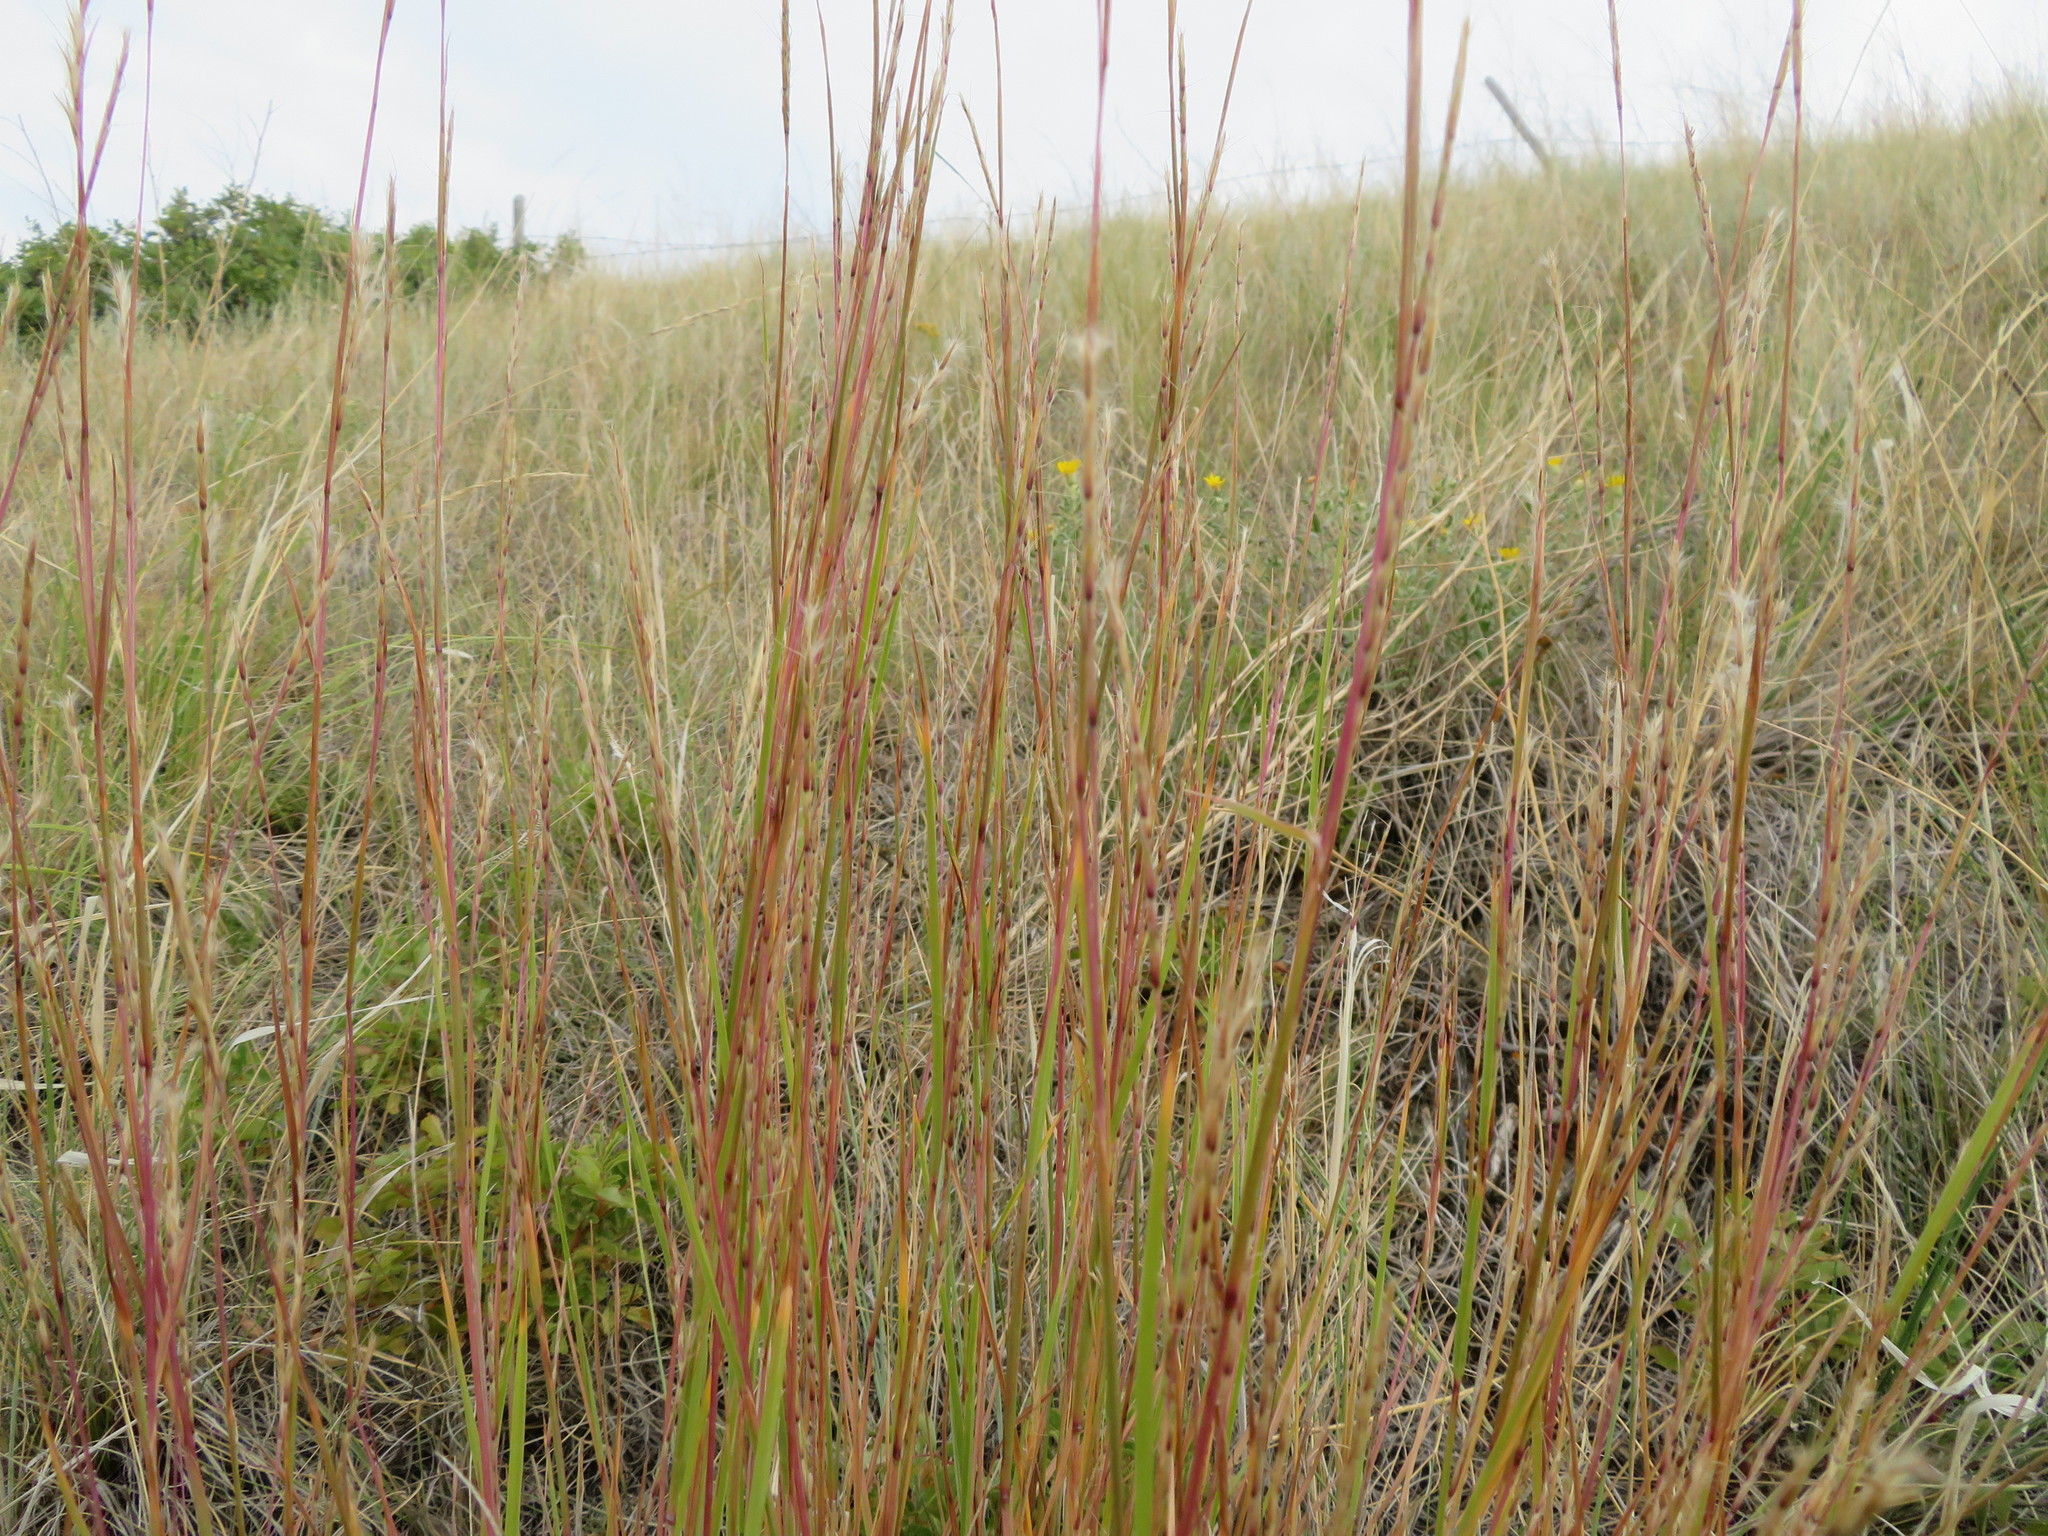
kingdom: Plantae
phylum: Tracheophyta
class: Liliopsida
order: Poales
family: Poaceae
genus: Schizachyrium
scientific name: Schizachyrium scoparium
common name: Little bluestem
